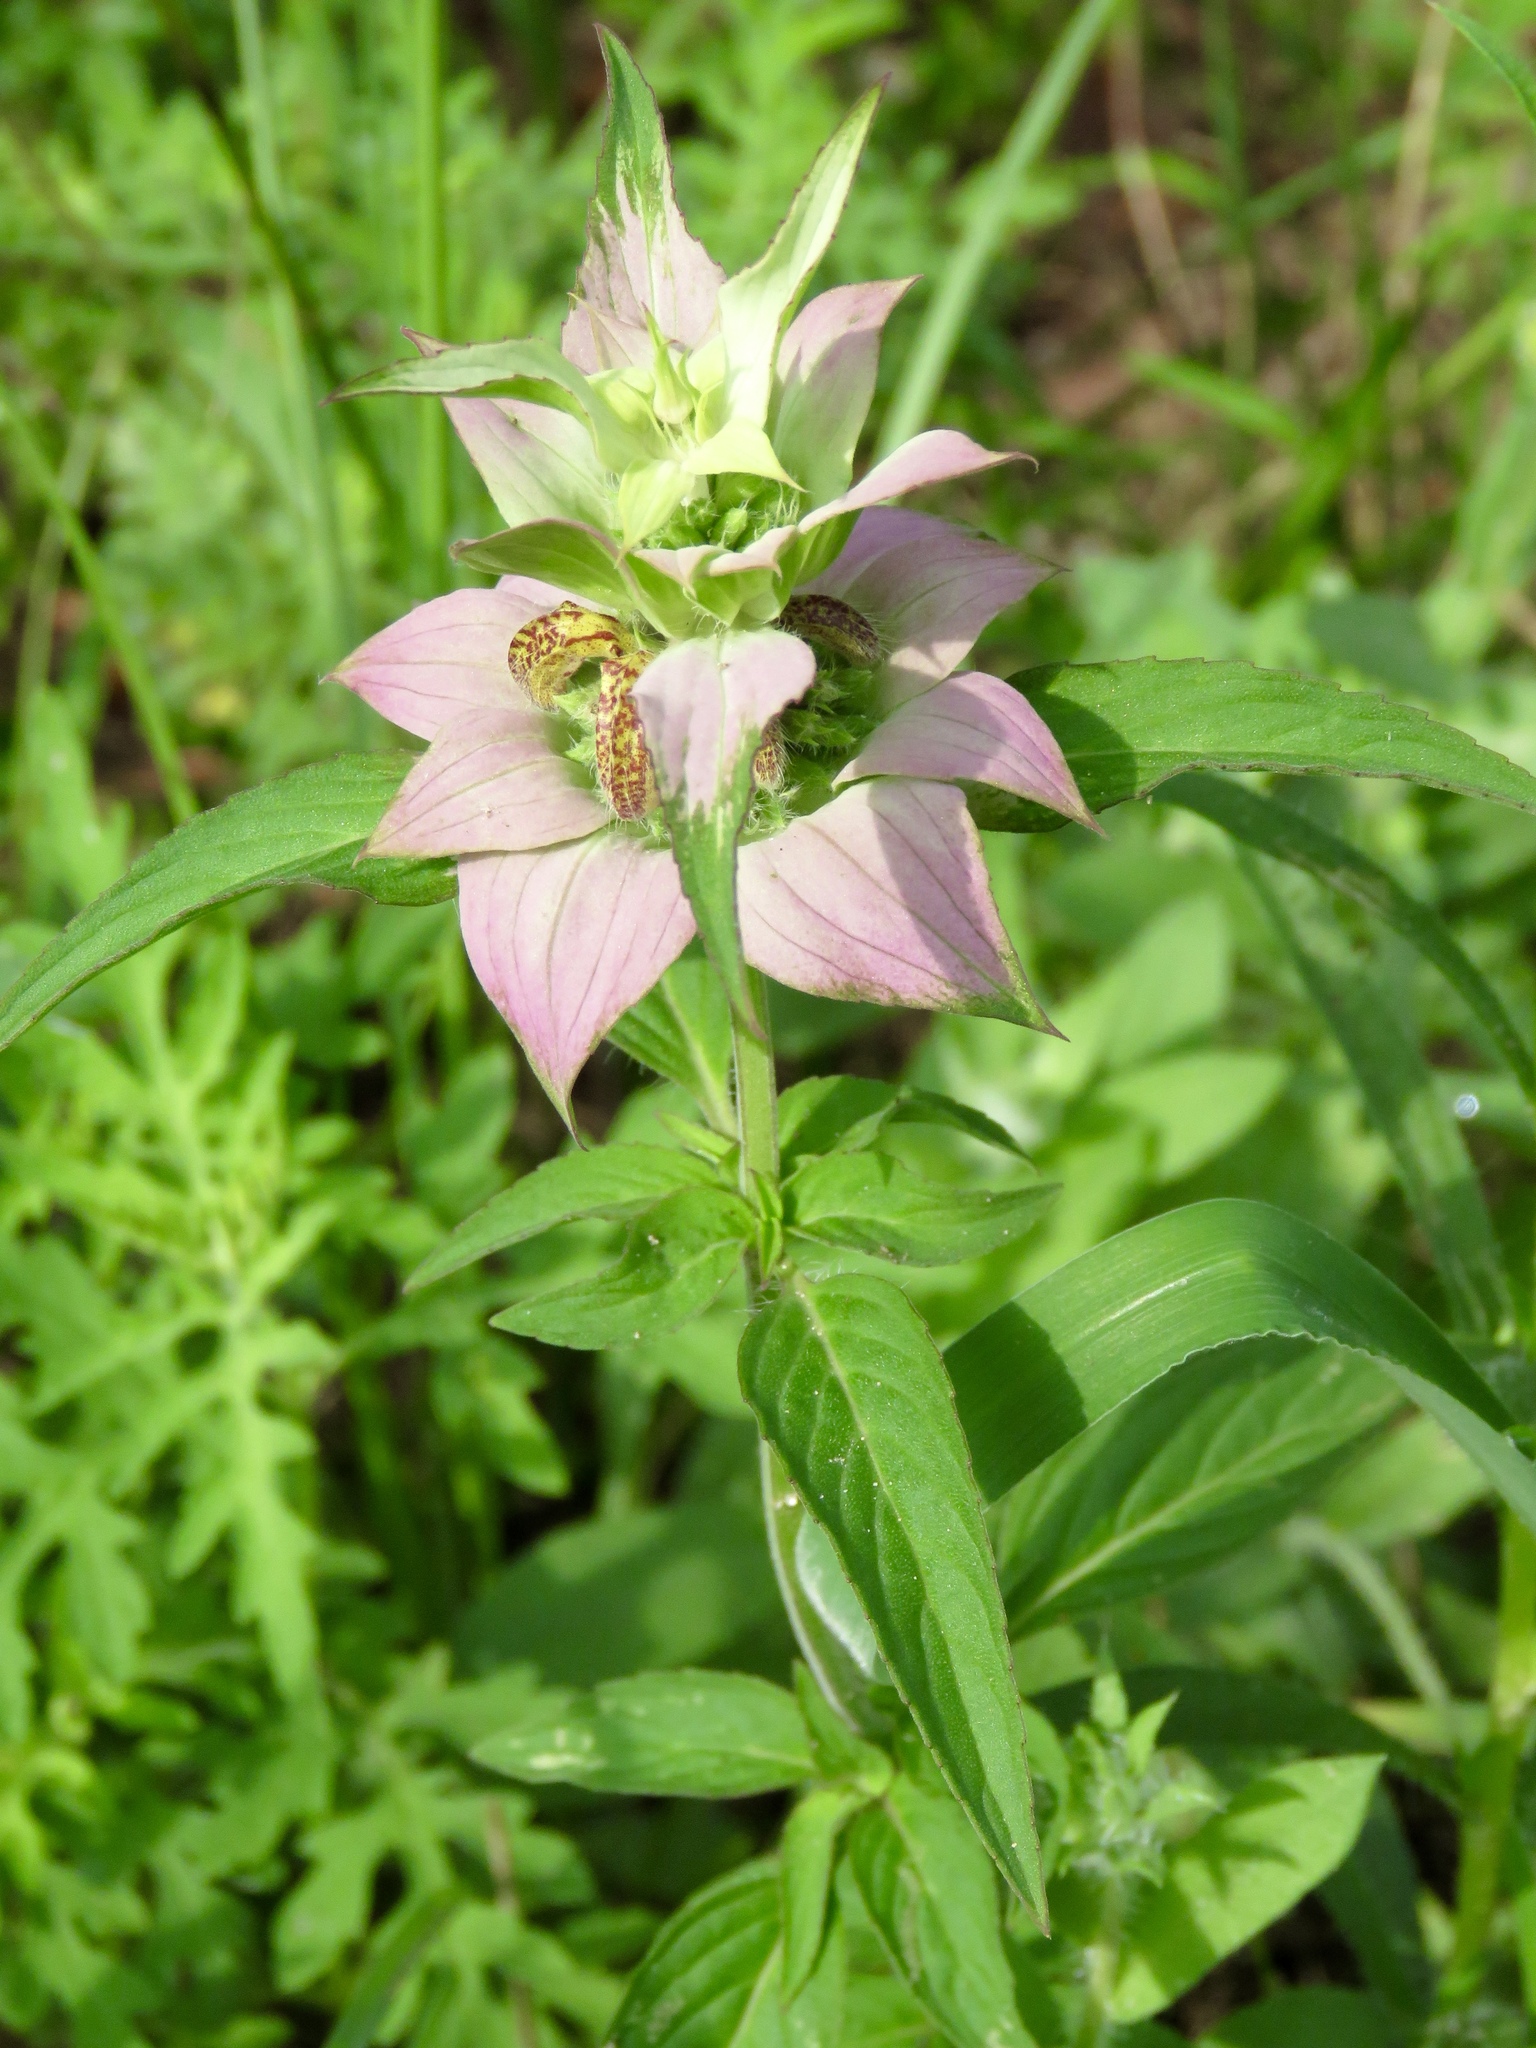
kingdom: Plantae
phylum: Tracheophyta
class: Magnoliopsida
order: Lamiales
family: Lamiaceae
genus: Monarda
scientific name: Monarda punctata
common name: Dotted monarda
